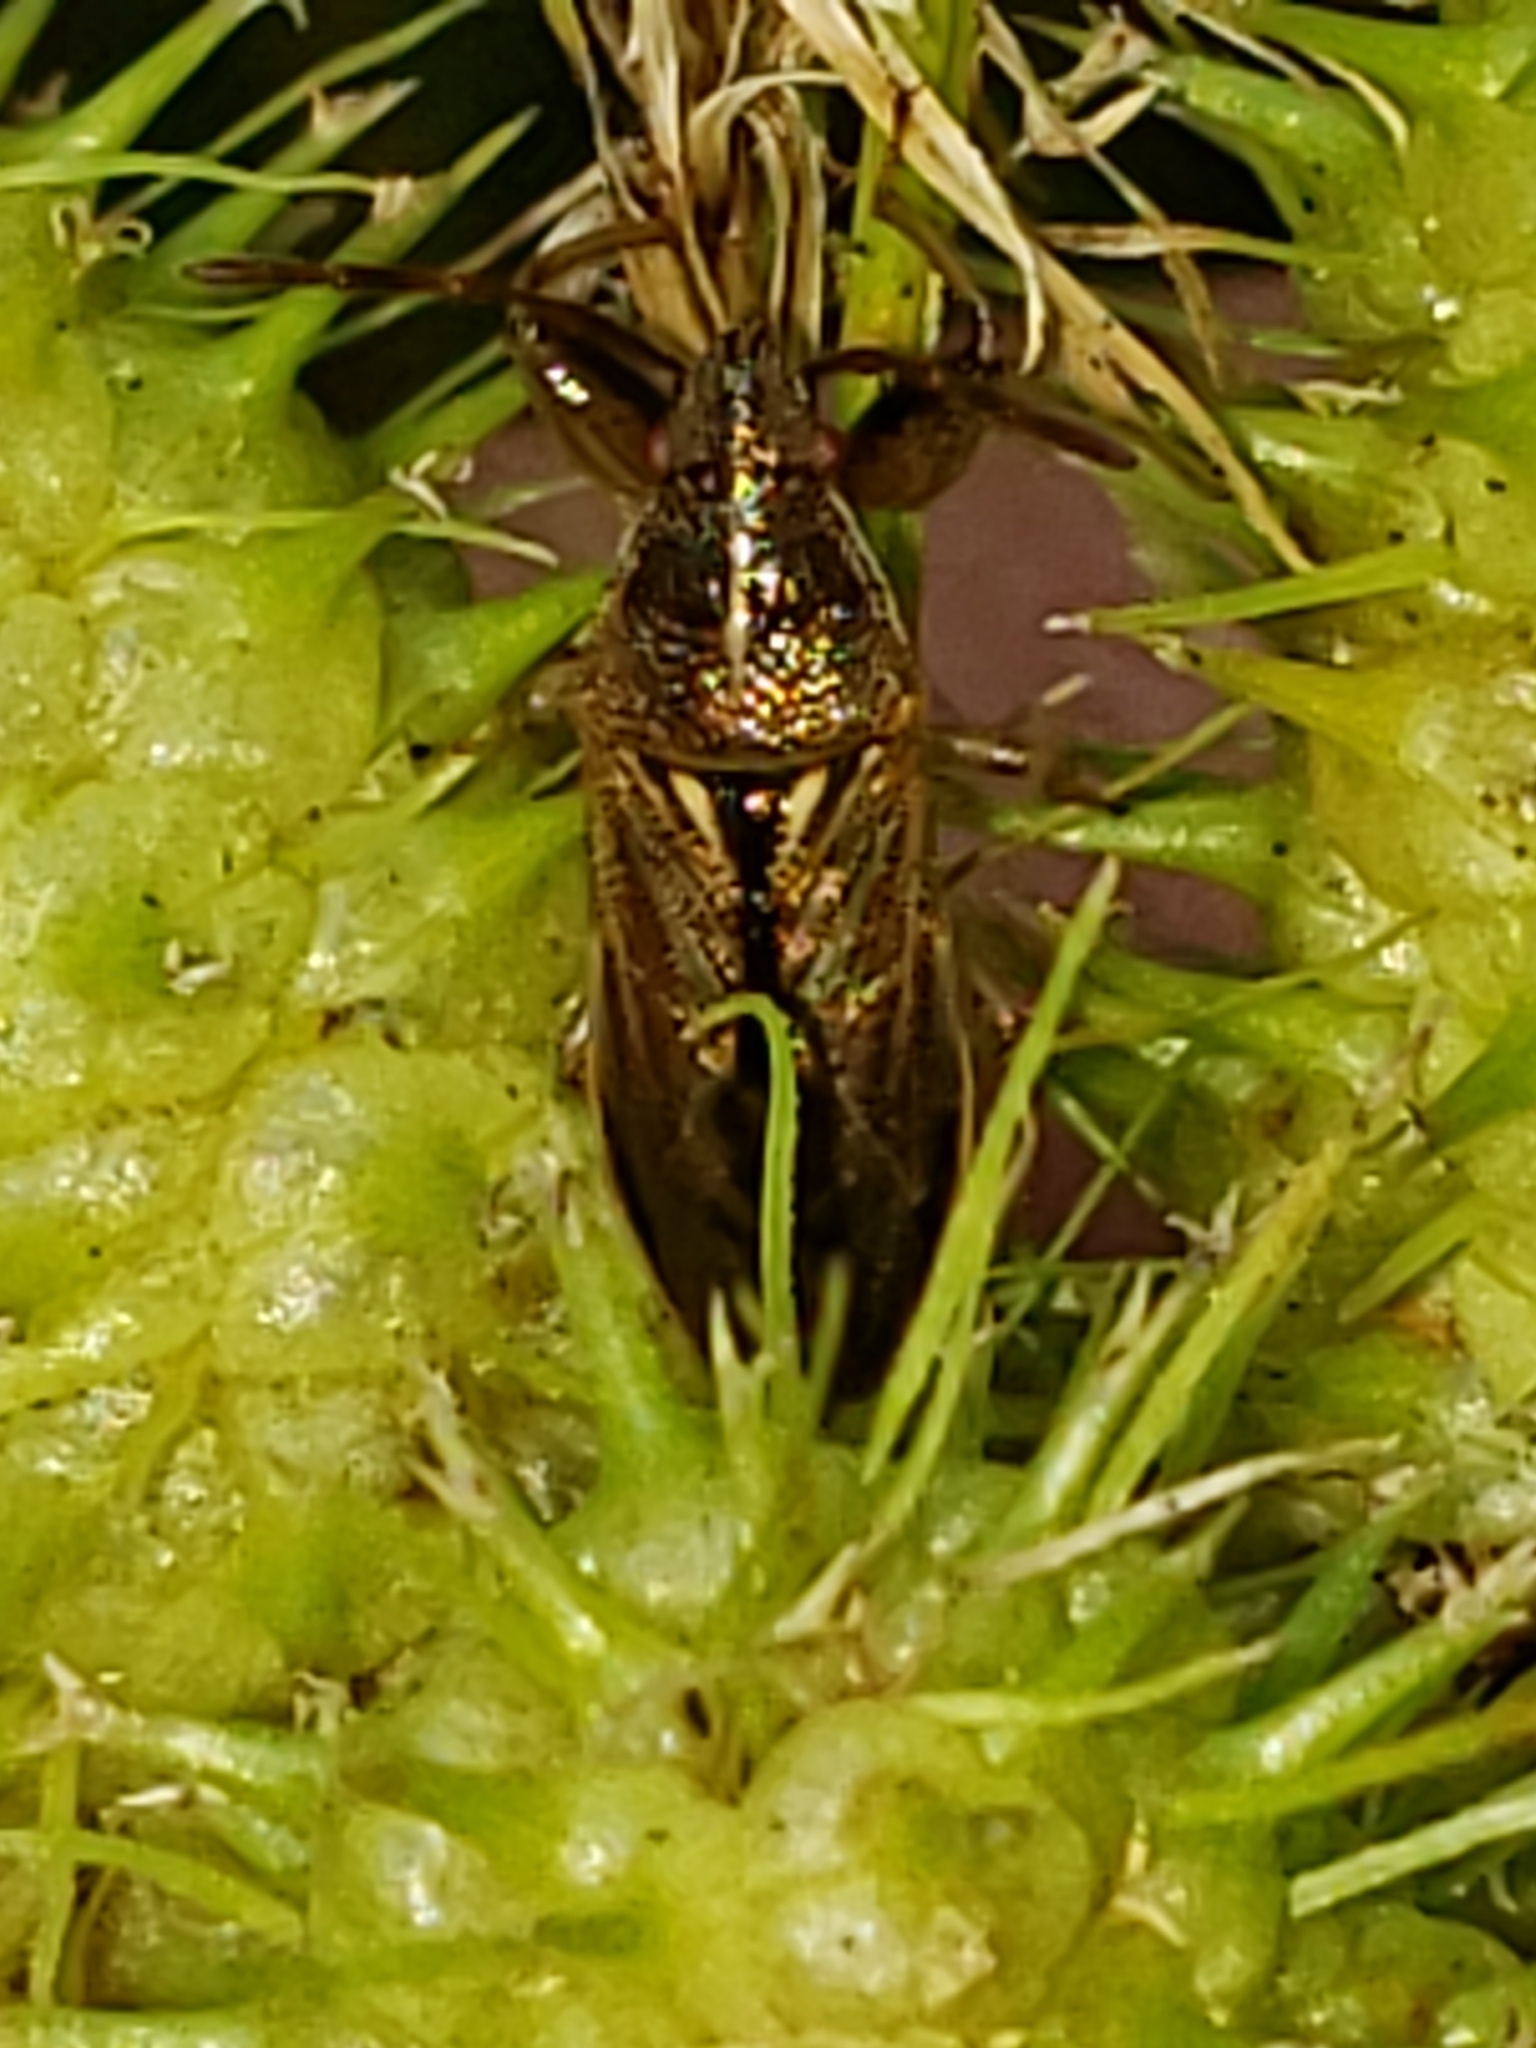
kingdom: Animalia
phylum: Arthropoda
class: Insecta
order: Hemiptera
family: Pachygronthidae
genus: Oedancala
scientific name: Oedancala dorsalis
